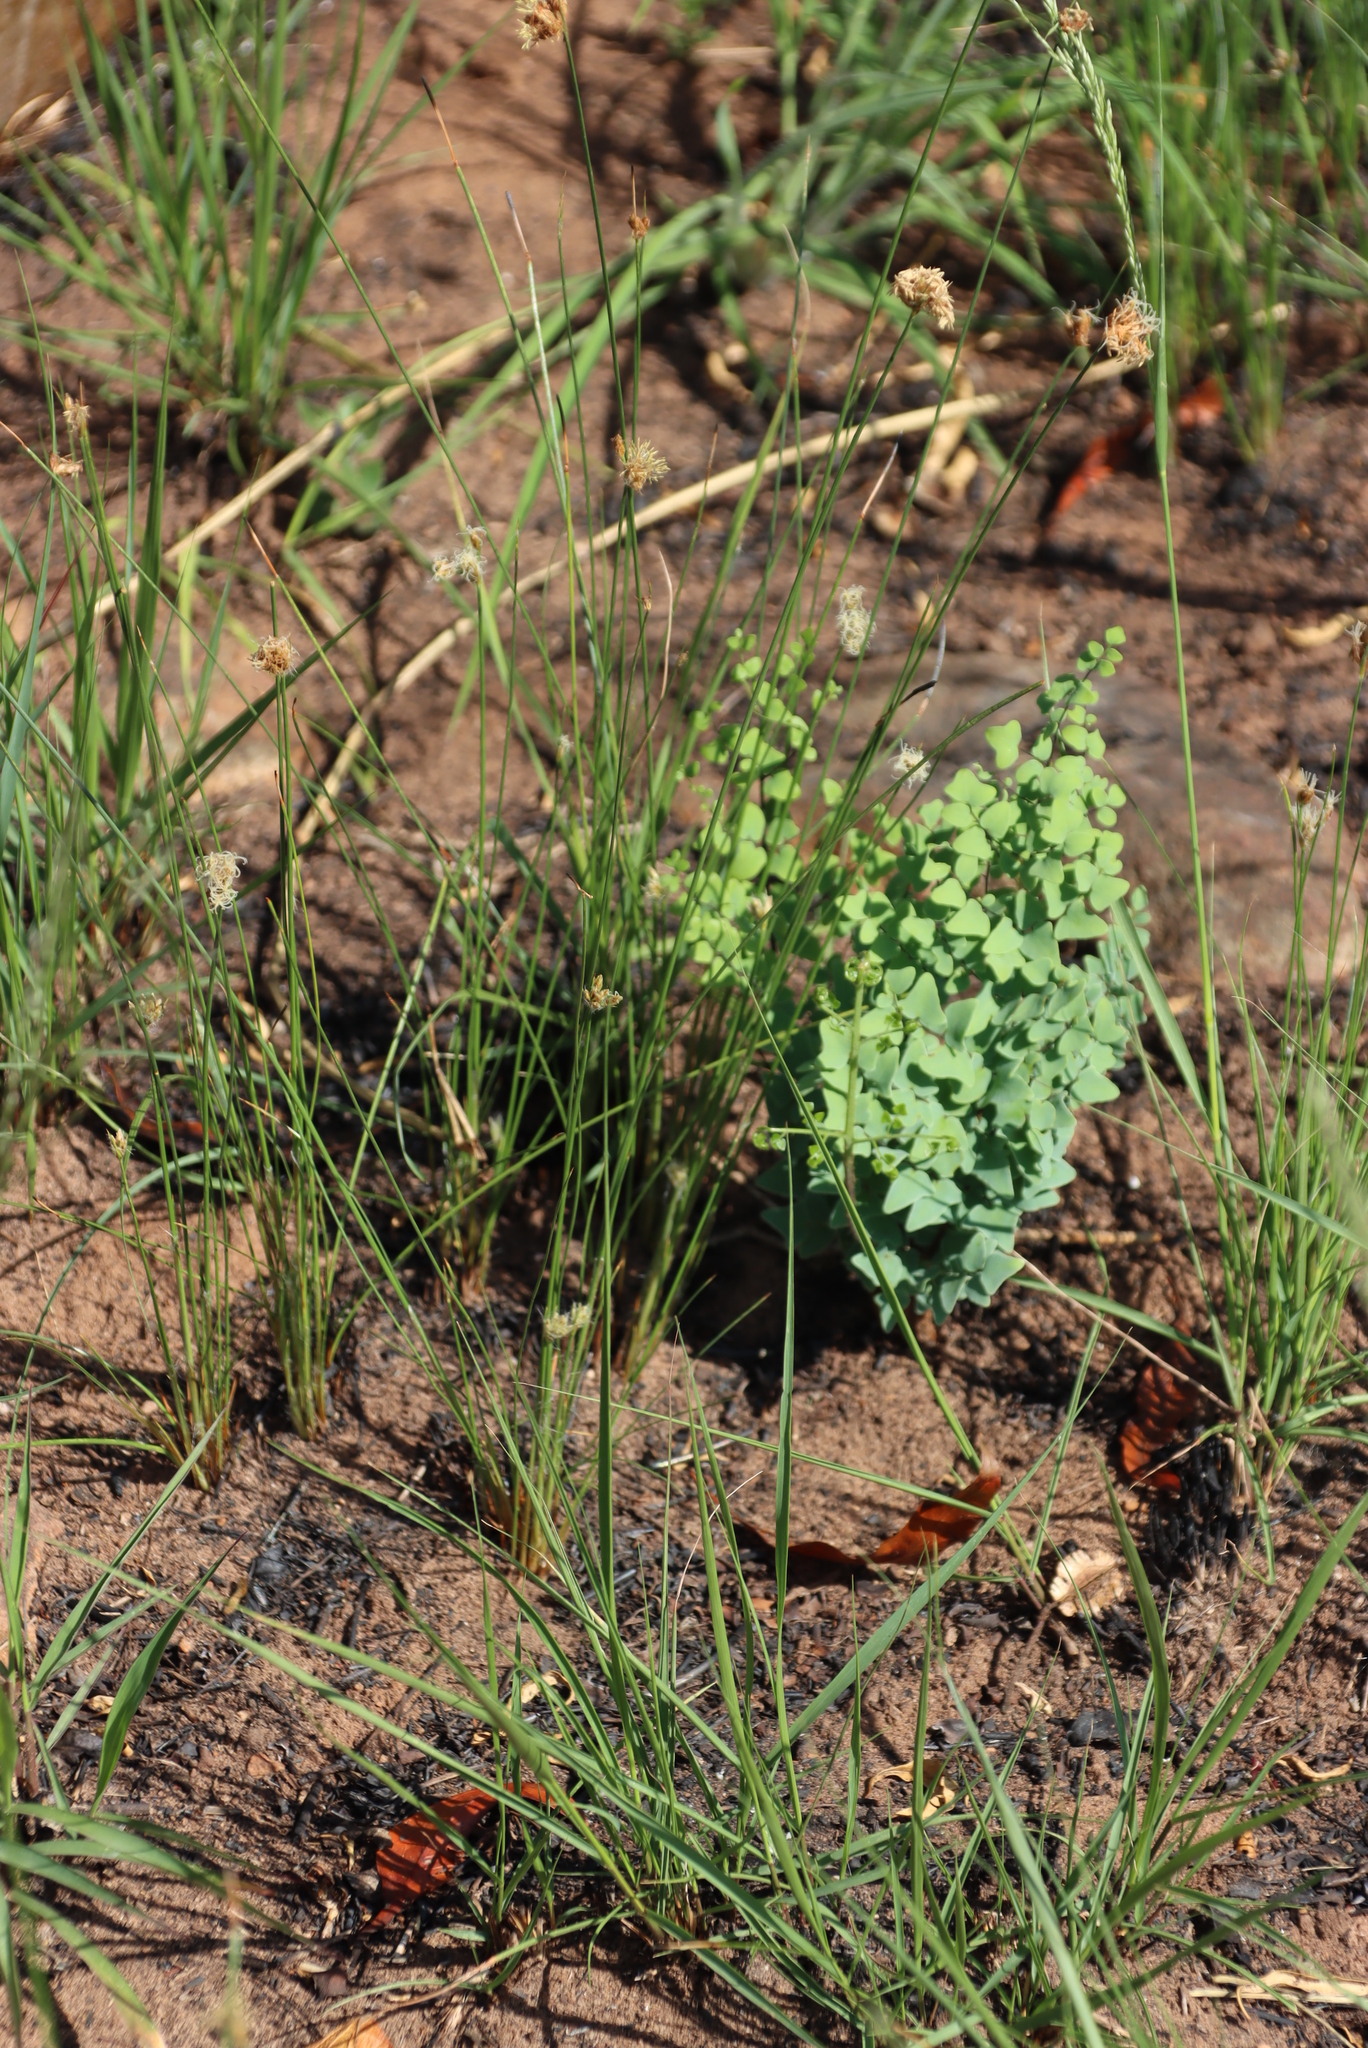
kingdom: Plantae
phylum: Tracheophyta
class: Polypodiopsida
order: Polypodiales
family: Pteridaceae
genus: Pellaea
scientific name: Pellaea calomelanos
